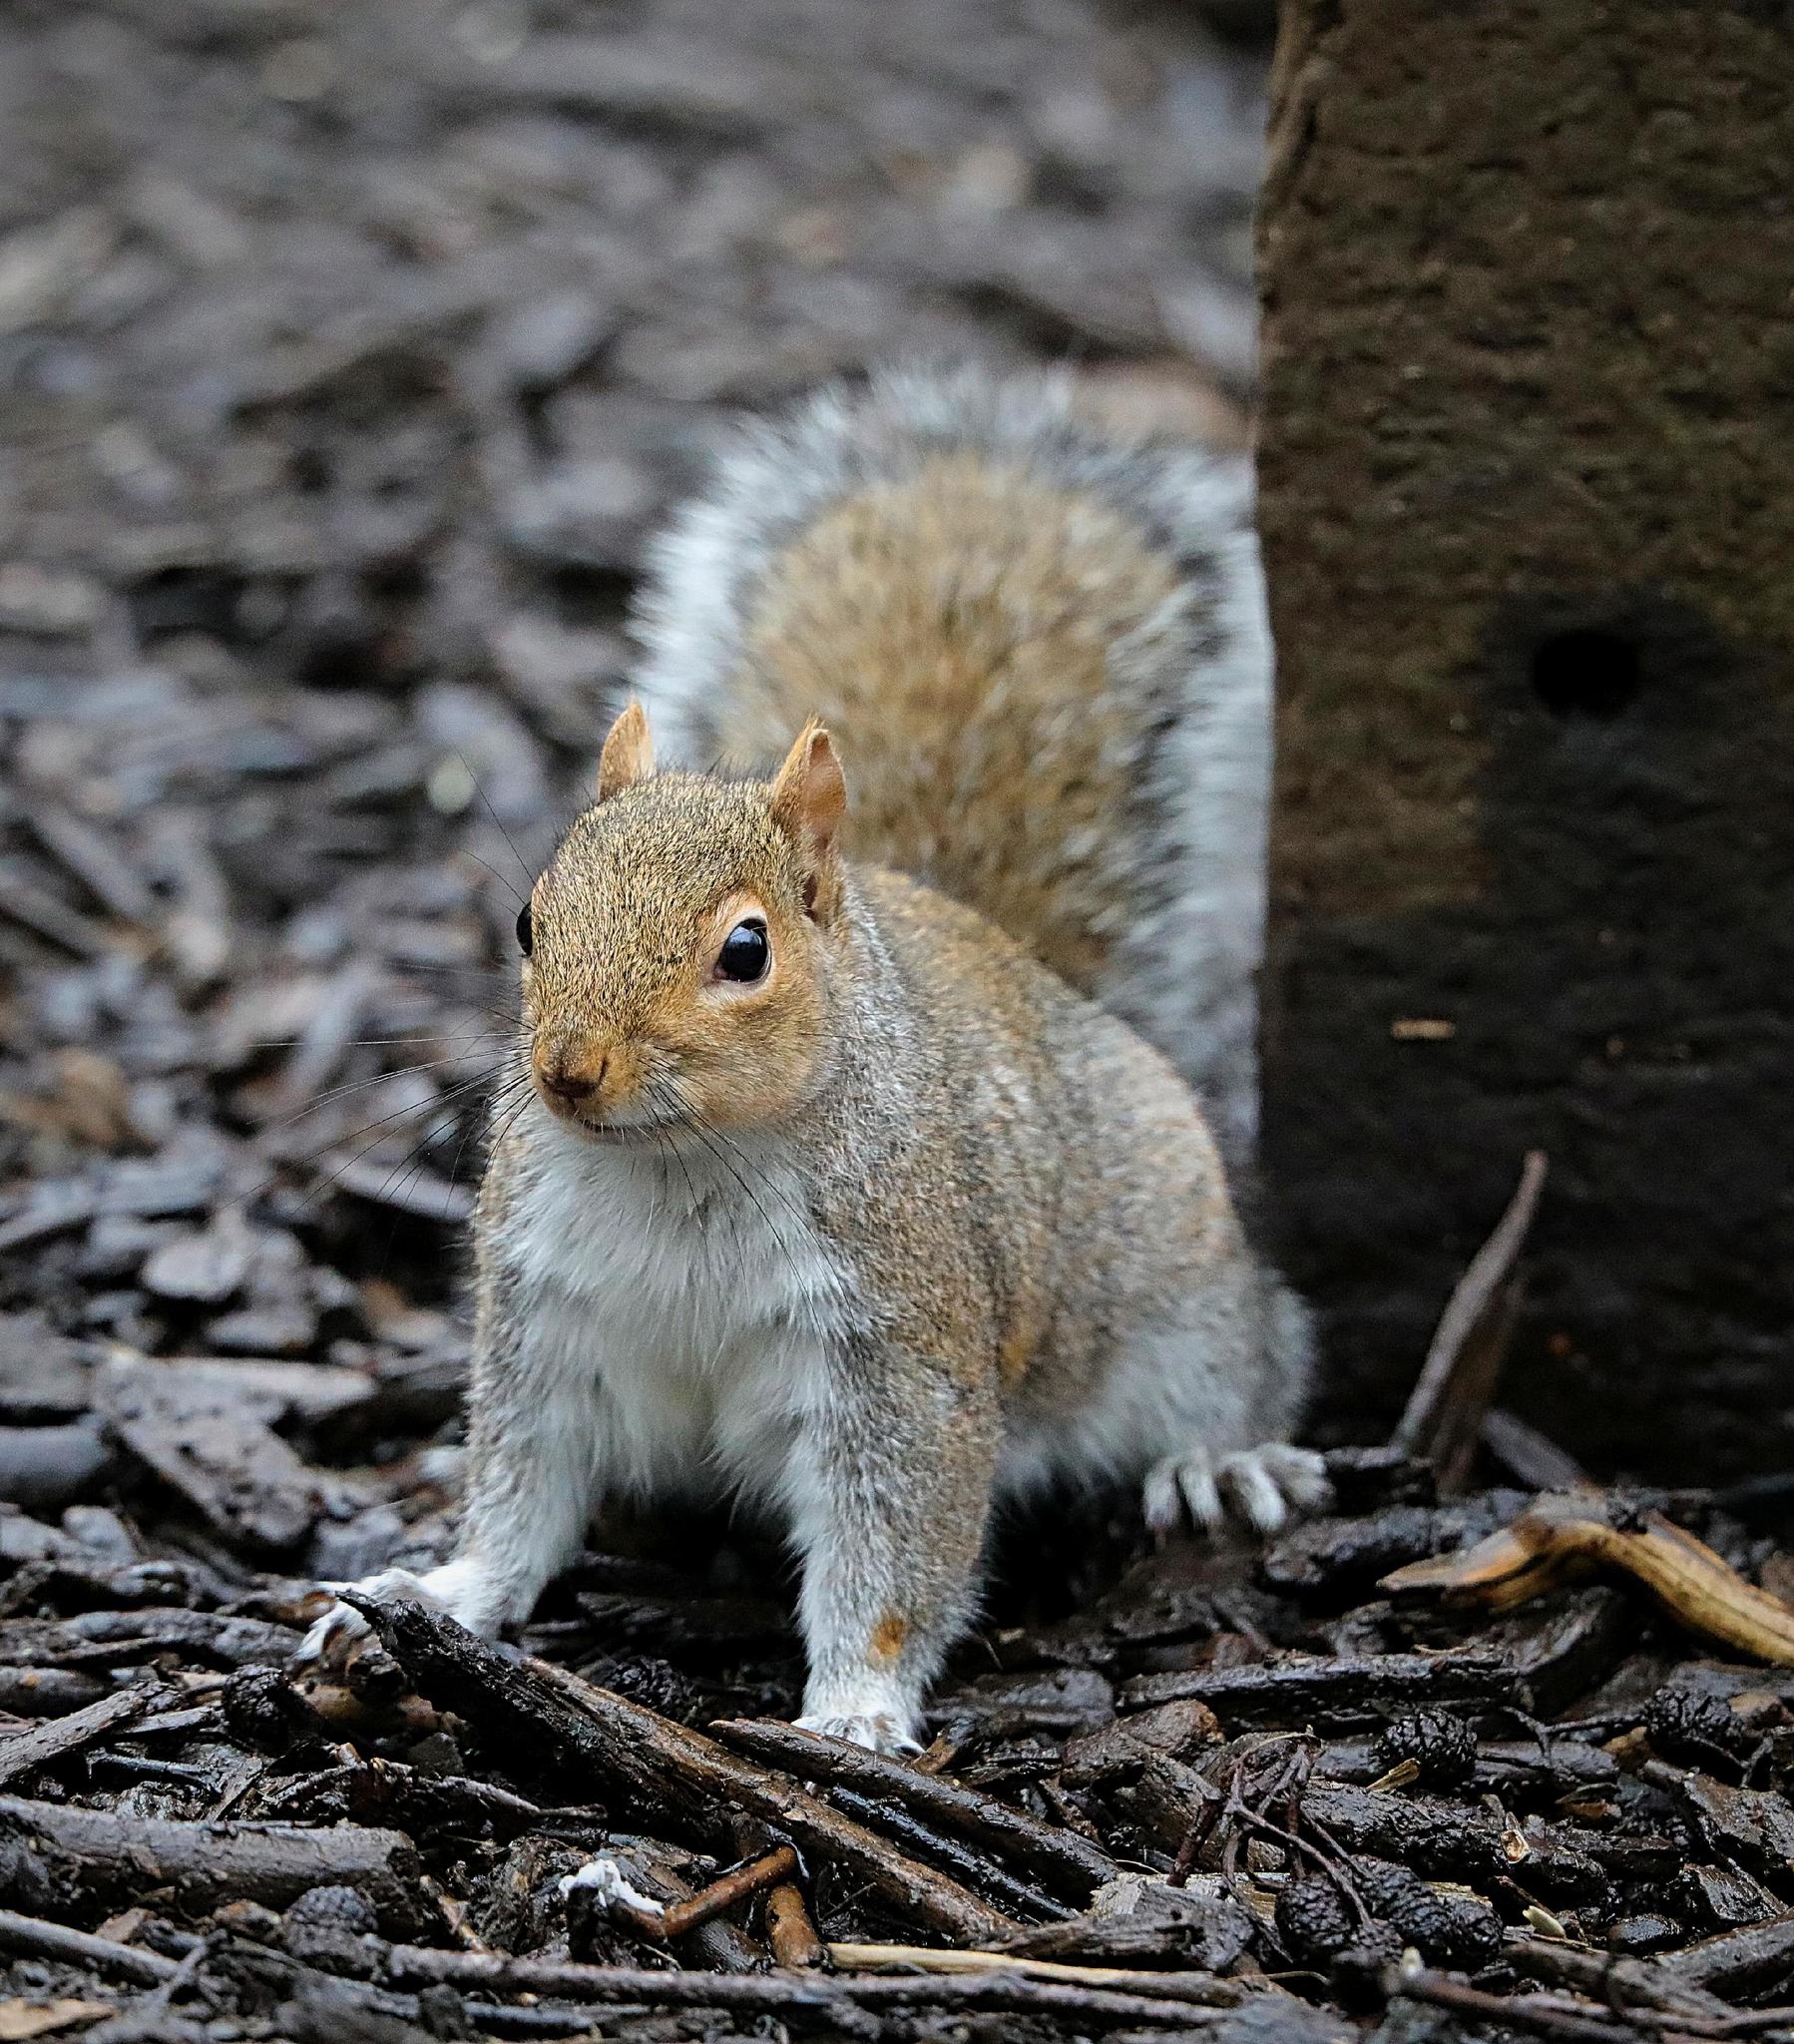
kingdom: Animalia
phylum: Chordata
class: Mammalia
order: Rodentia
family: Sciuridae
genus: Sciurus
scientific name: Sciurus carolinensis
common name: Eastern gray squirrel
